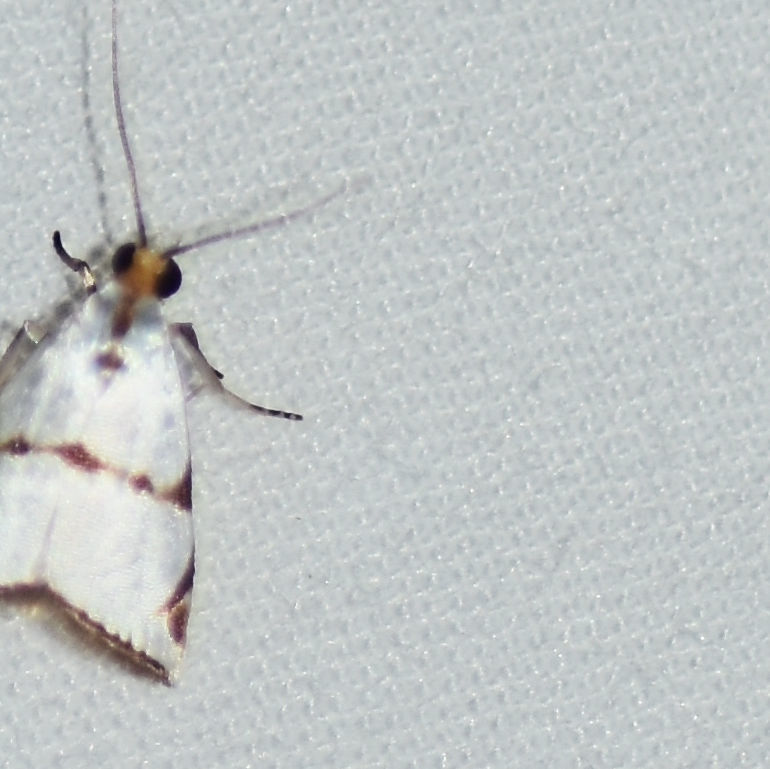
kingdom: Animalia
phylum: Arthropoda
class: Insecta
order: Lepidoptera
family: Crambidae
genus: Argyria
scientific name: Argyria insons
